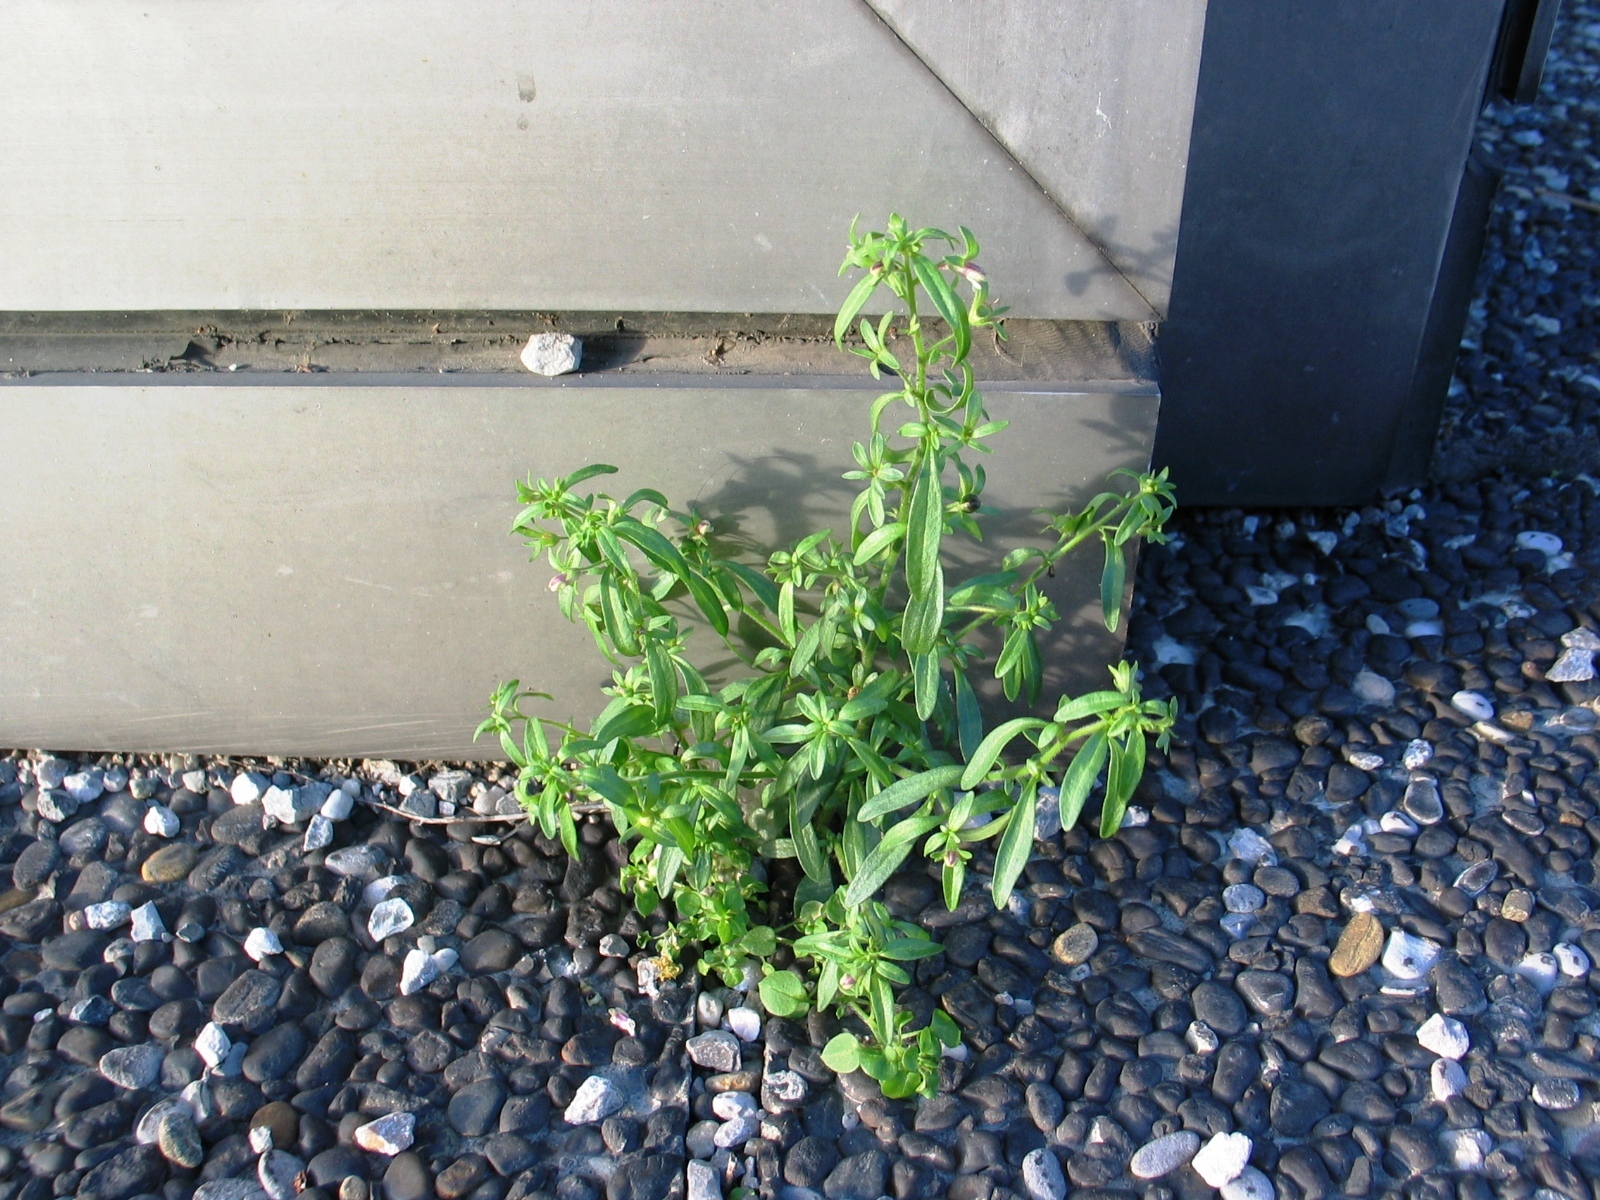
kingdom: Plantae
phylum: Tracheophyta
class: Magnoliopsida
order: Lamiales
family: Plantaginaceae
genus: Chaenorhinum
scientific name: Chaenorhinum minus
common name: Dwarf snapdragon
